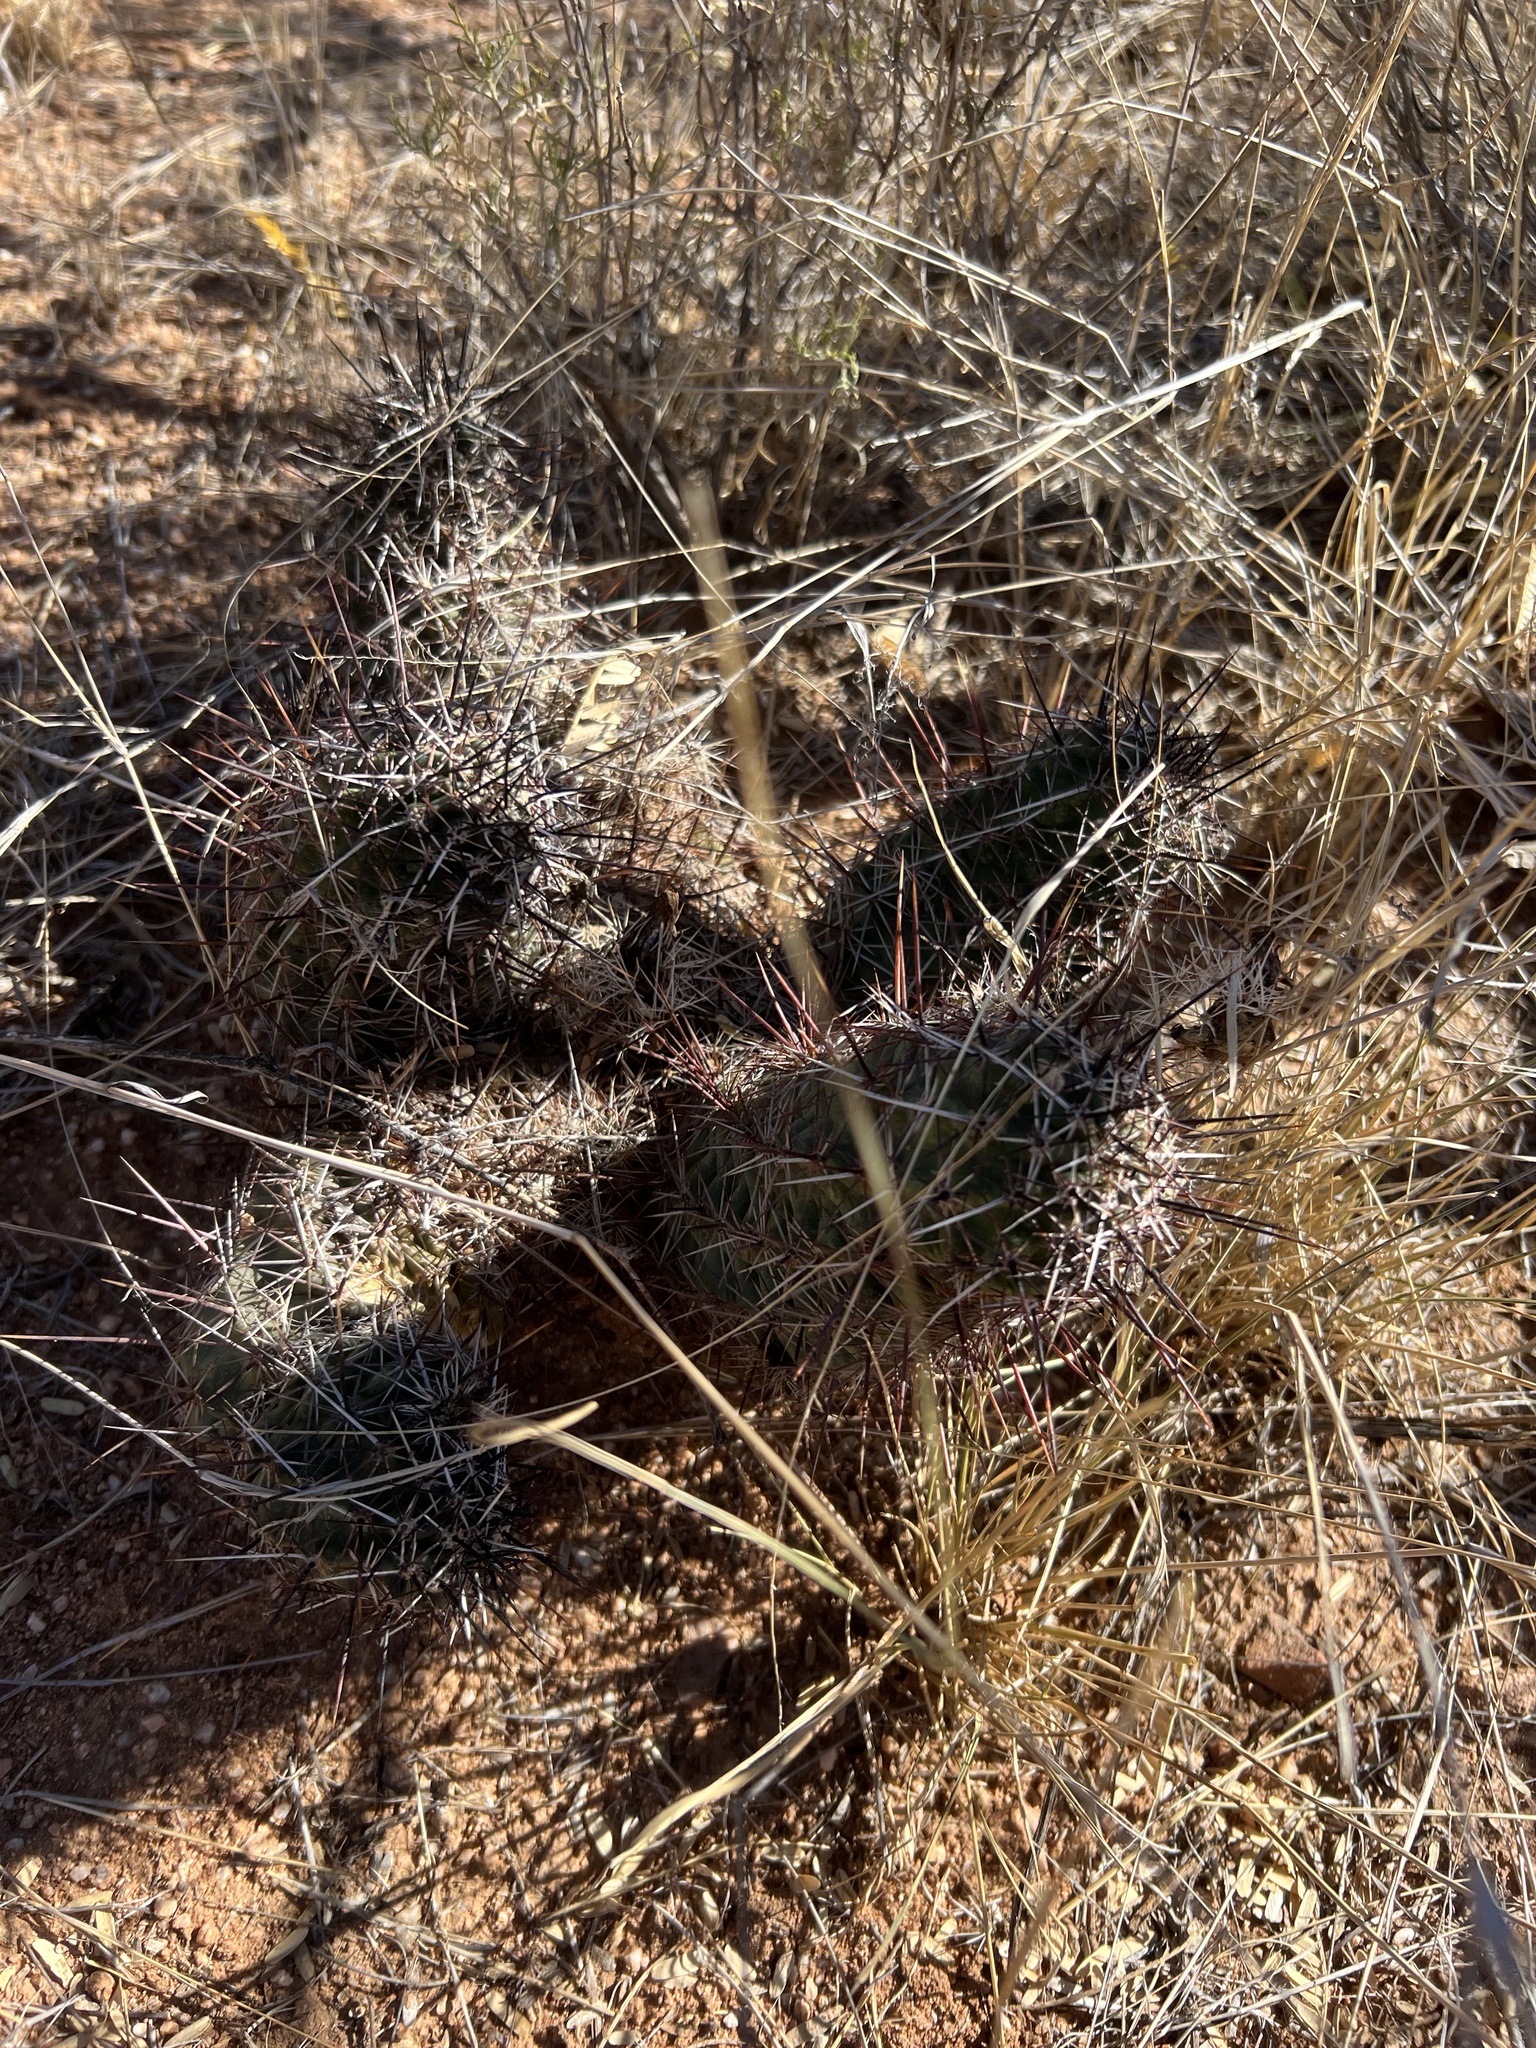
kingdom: Plantae
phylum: Tracheophyta
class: Magnoliopsida
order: Caryophyllales
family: Cactaceae
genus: Echinocereus
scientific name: Echinocereus fendleri
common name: Fendler's hedgehog cactus
